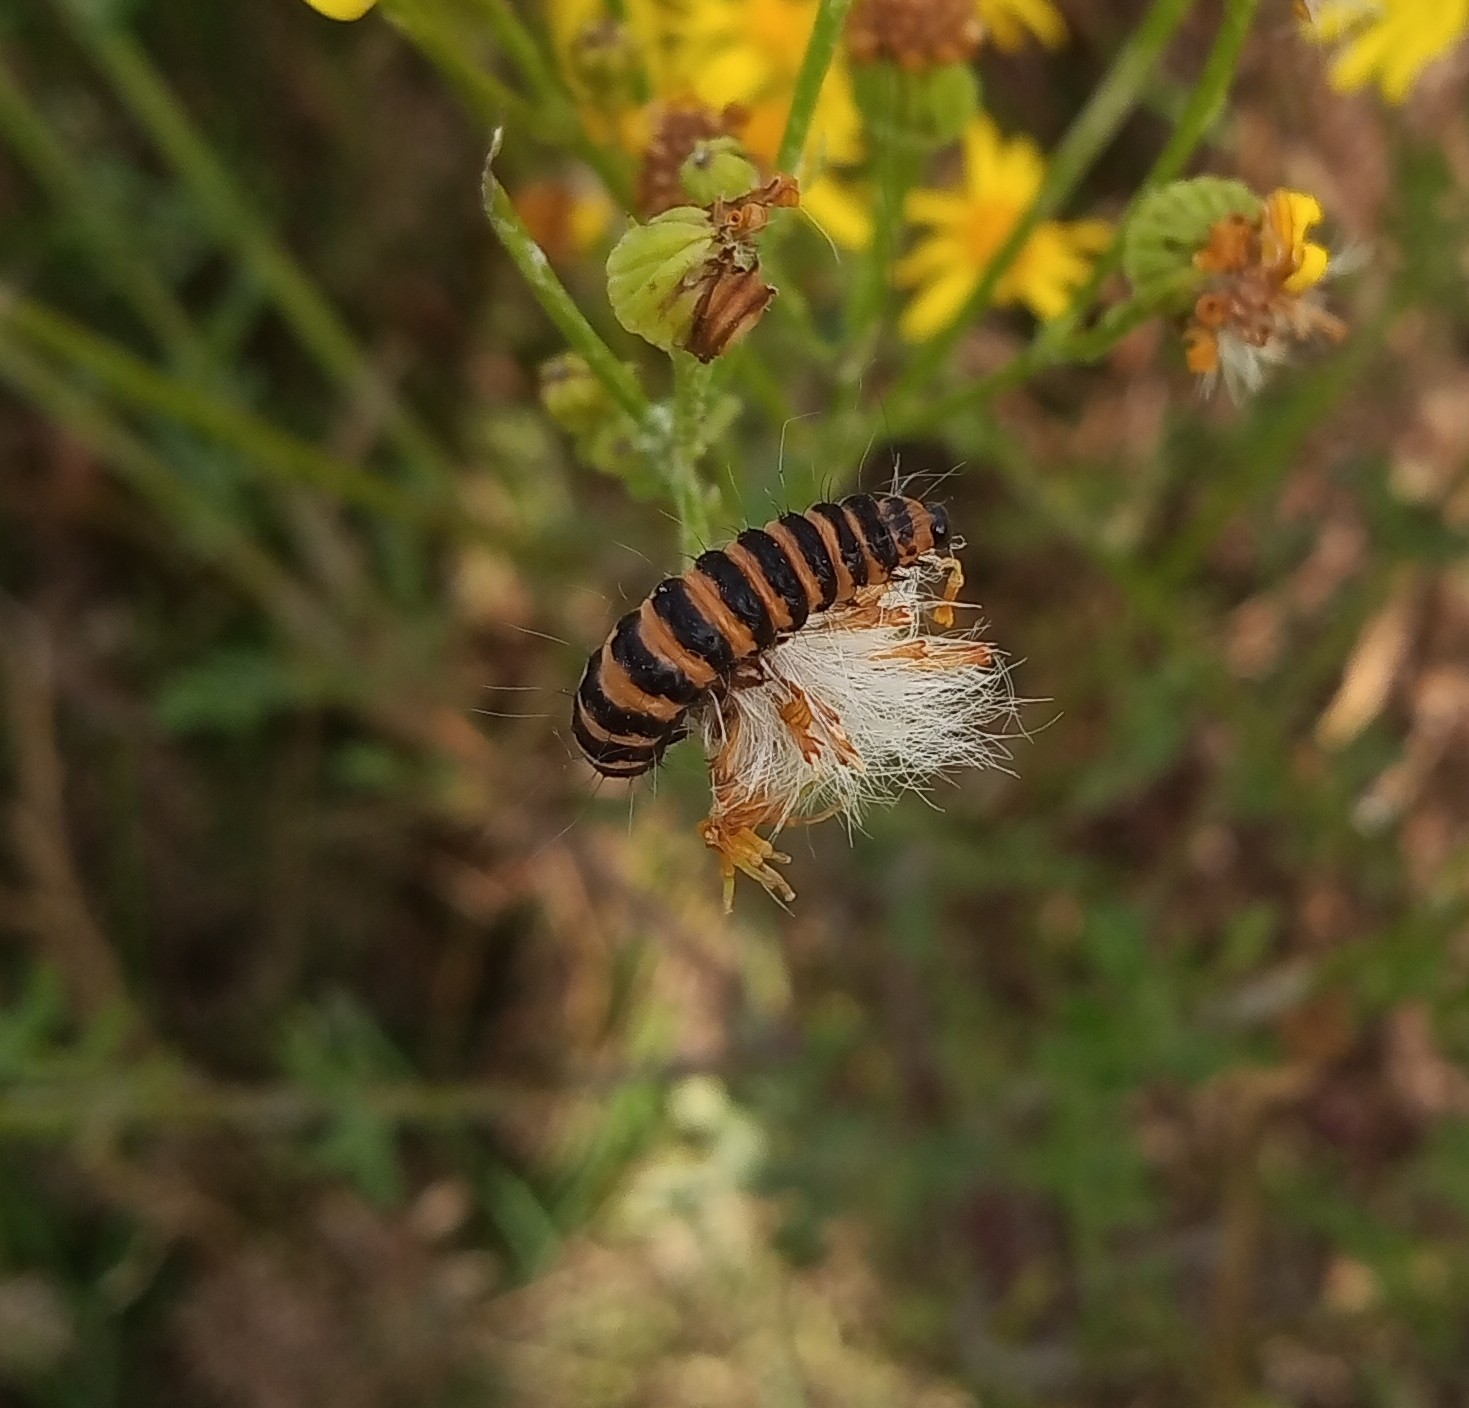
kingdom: Animalia
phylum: Arthropoda
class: Insecta
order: Lepidoptera
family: Erebidae
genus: Tyria
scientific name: Tyria jacobaeae
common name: Cinnabar
